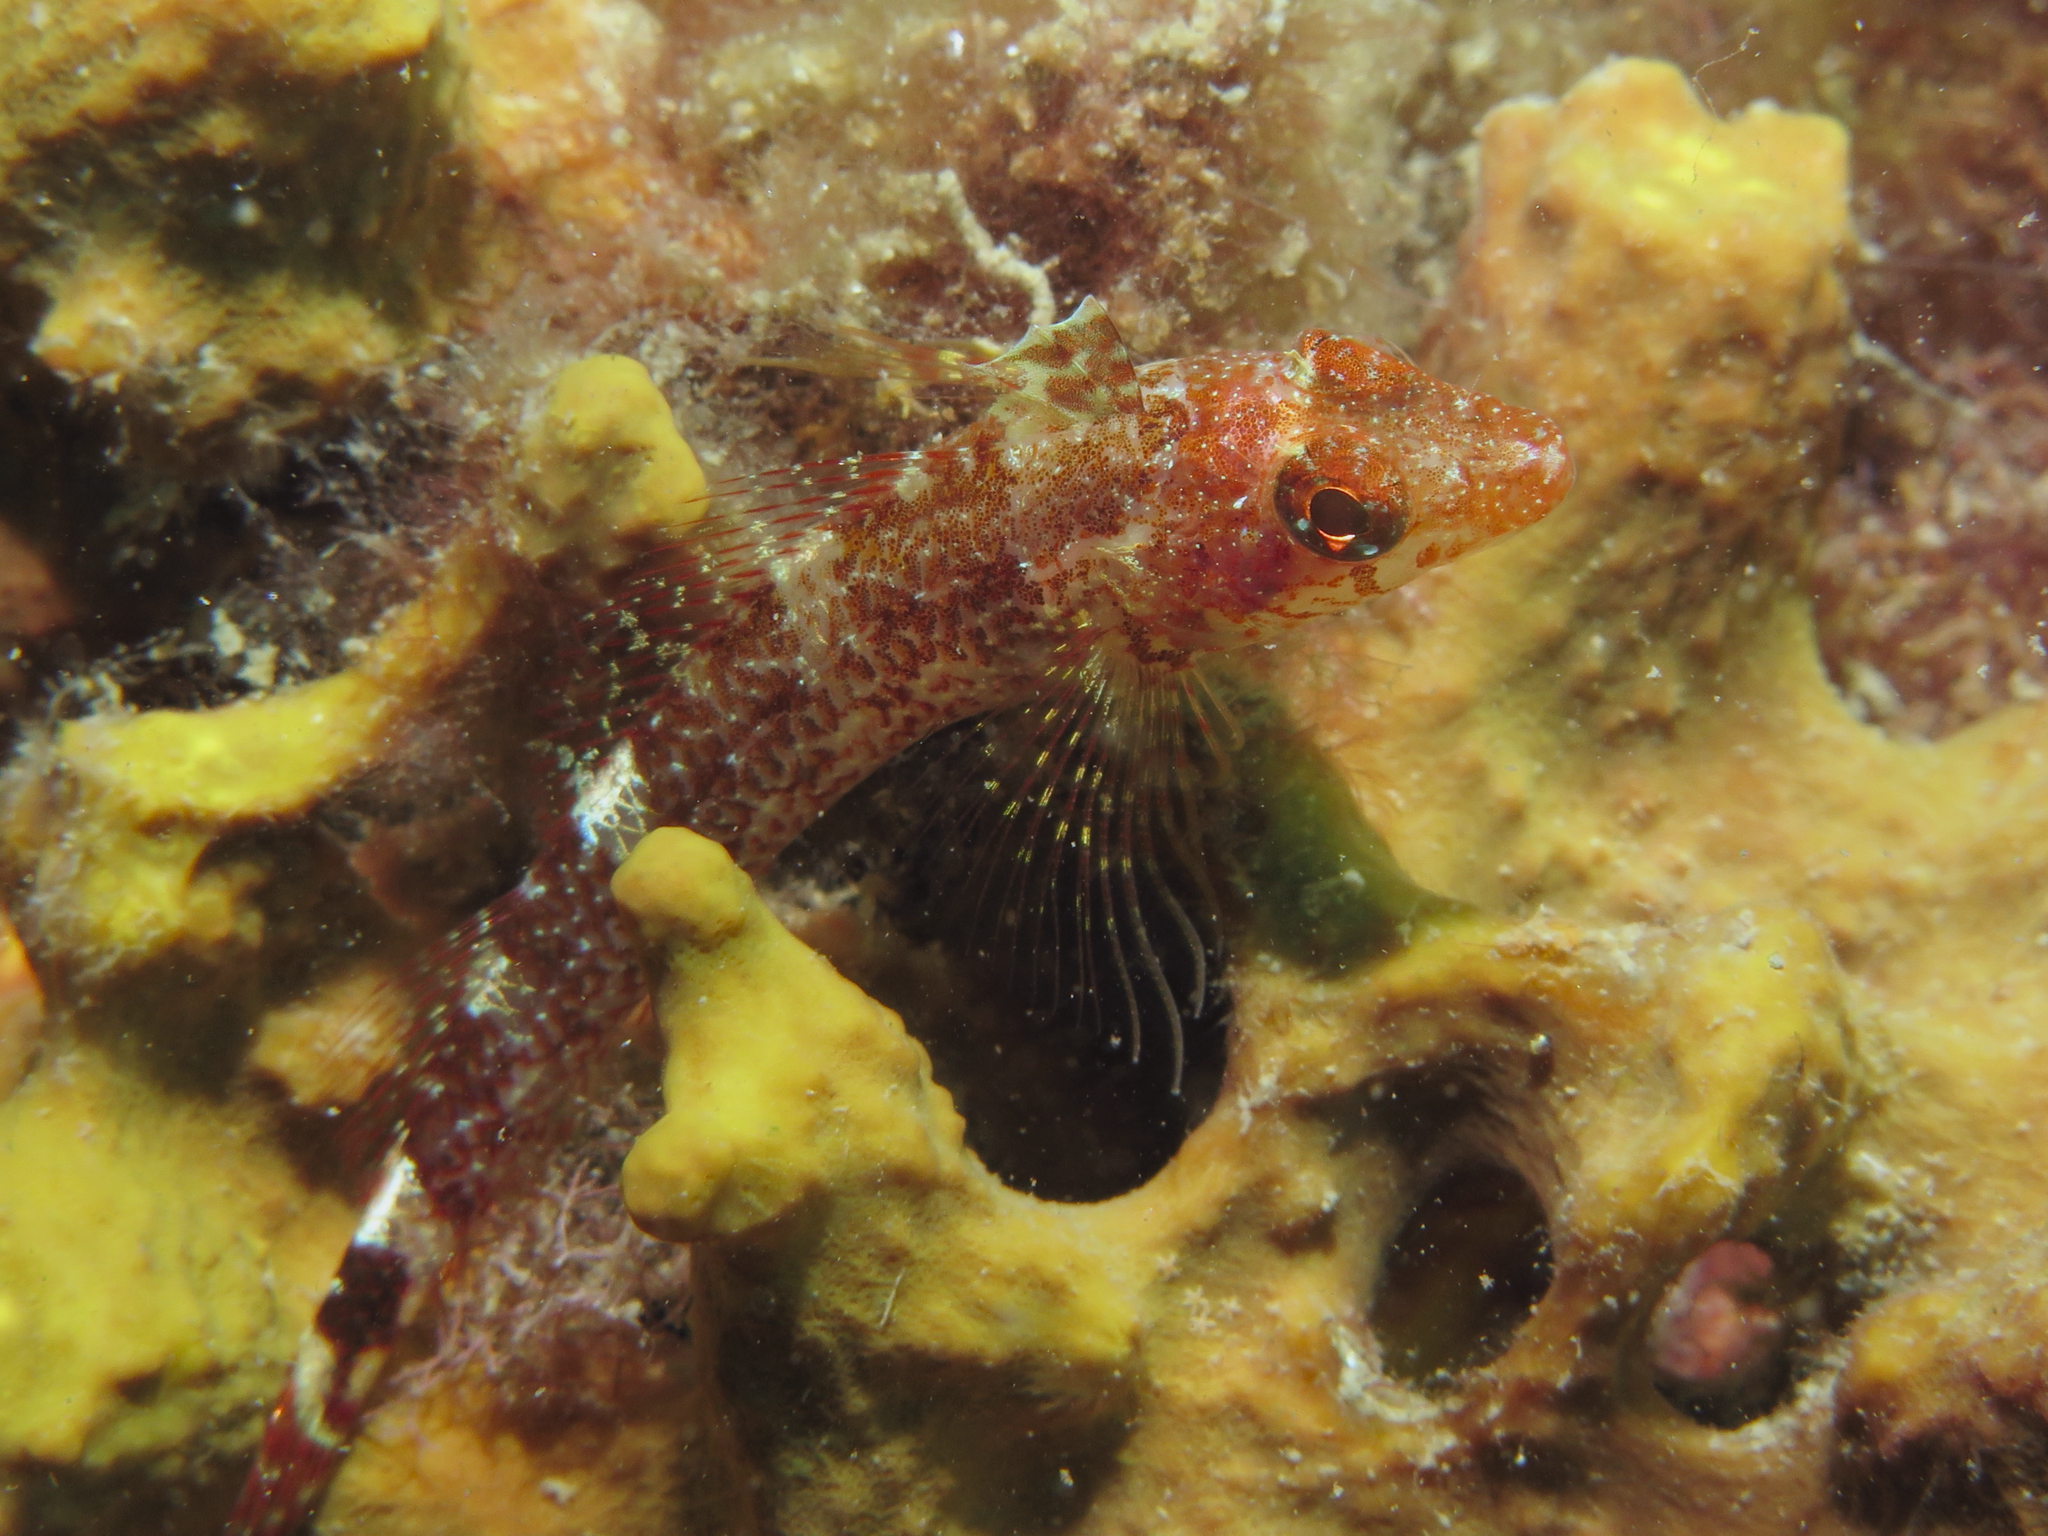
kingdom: Animalia
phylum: Chordata
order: Perciformes
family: Tripterygiidae
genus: Tripterygion
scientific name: Tripterygion delaisi
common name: Black-face blenny
